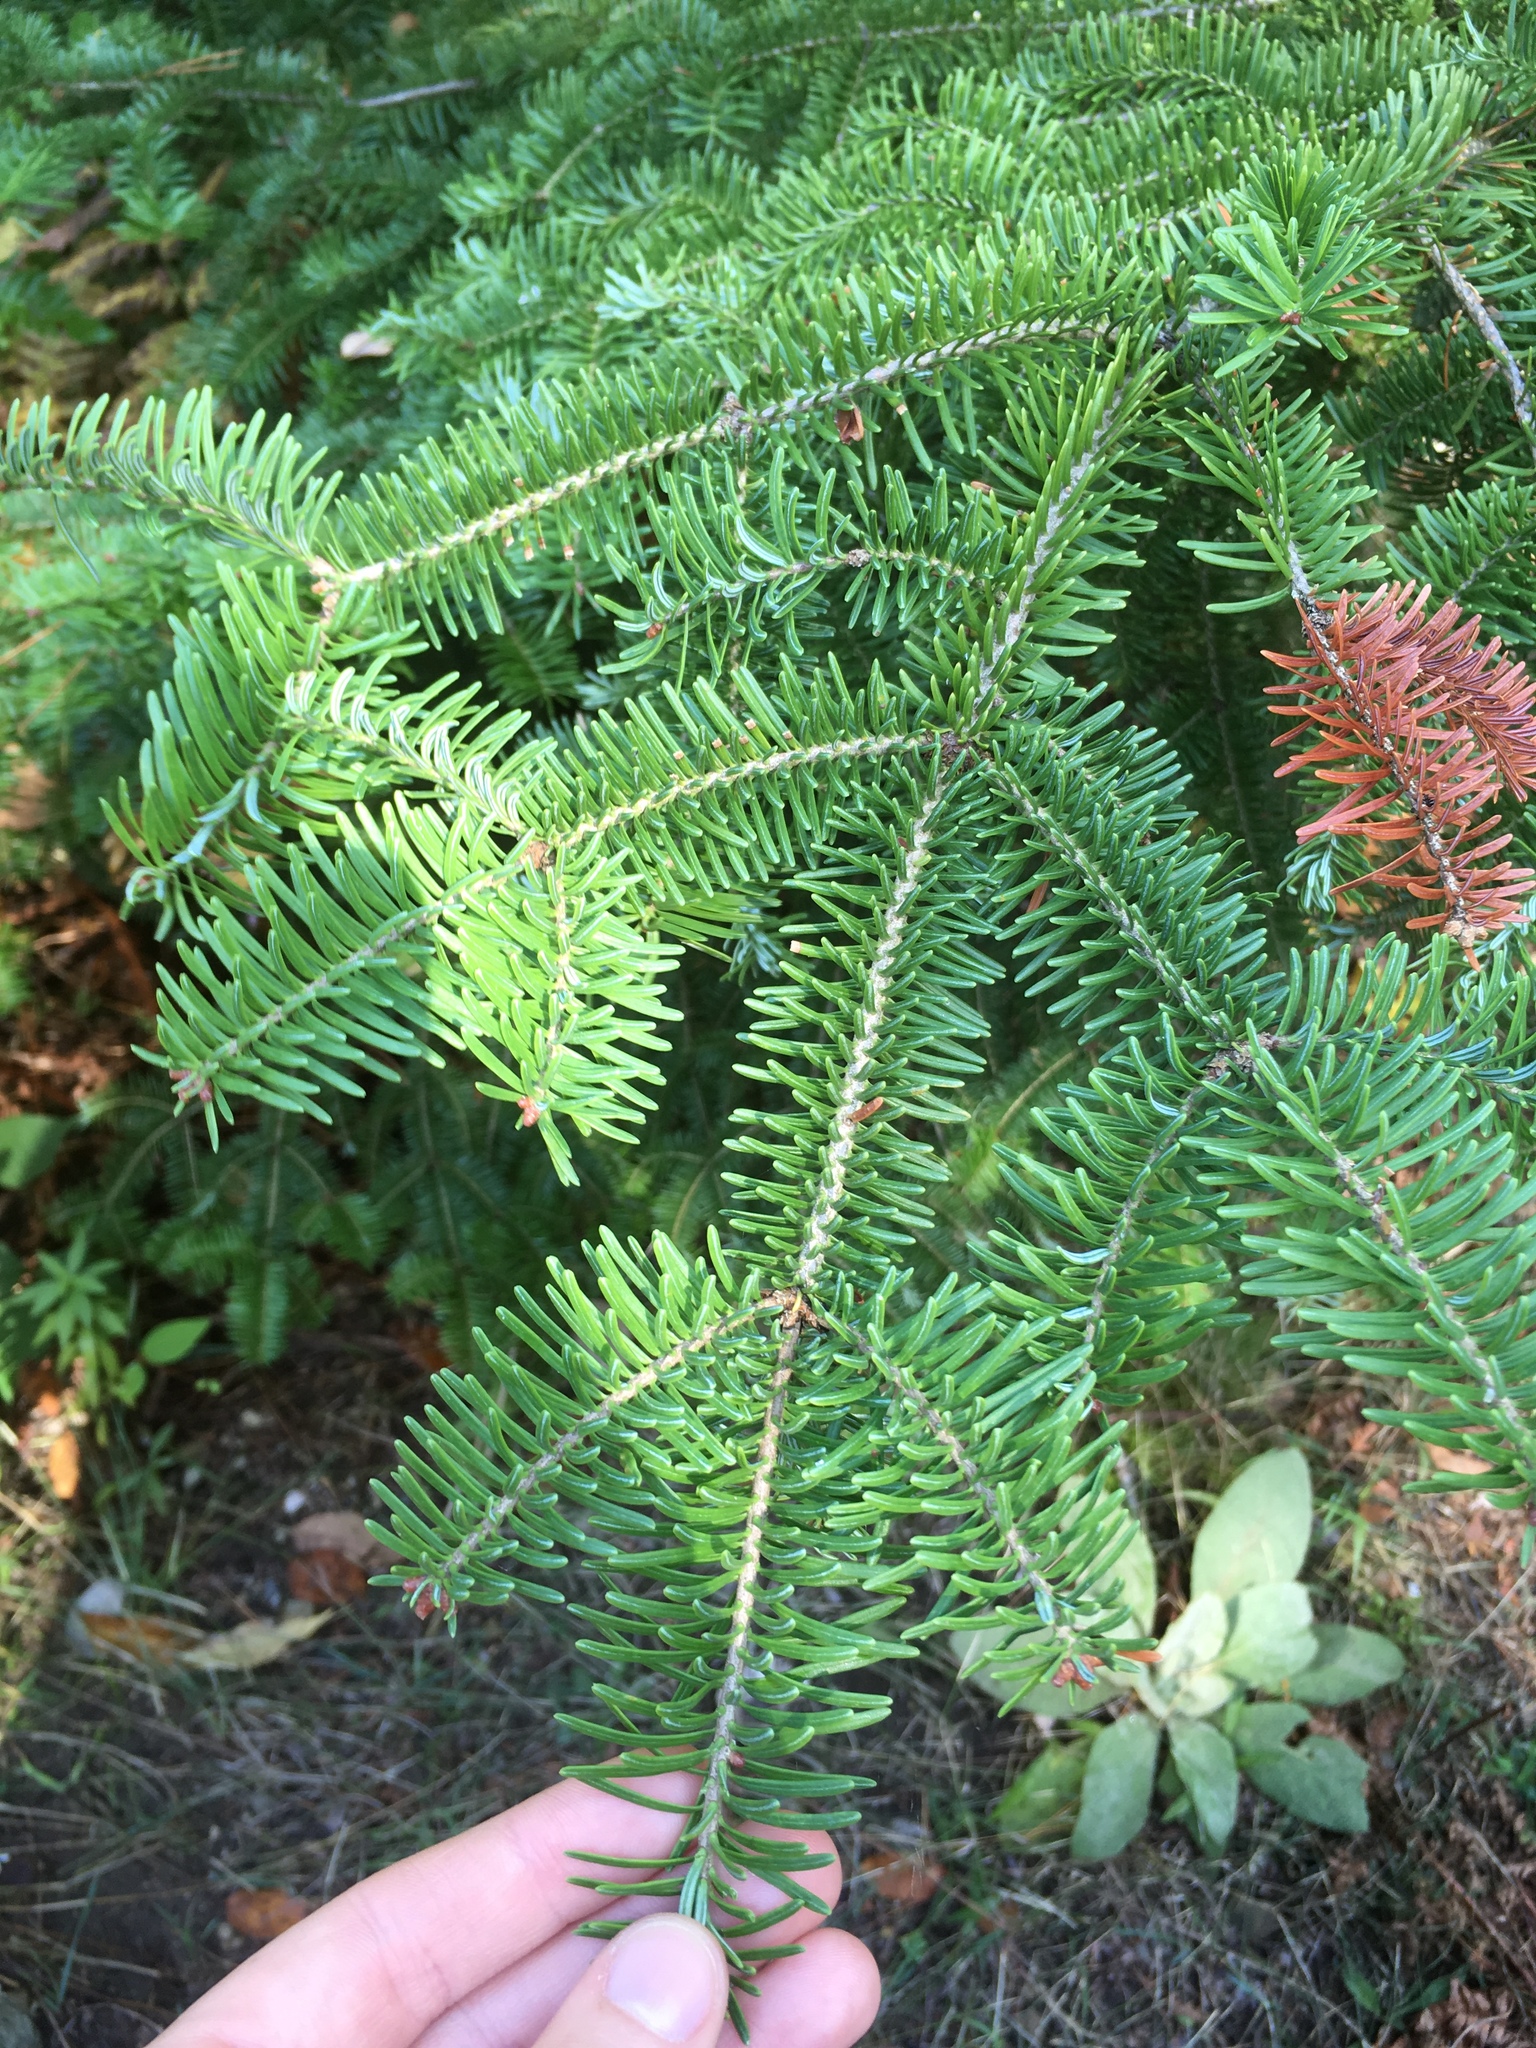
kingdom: Plantae
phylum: Tracheophyta
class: Pinopsida
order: Pinales
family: Pinaceae
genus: Abies
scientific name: Abies balsamea
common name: Balsam fir
